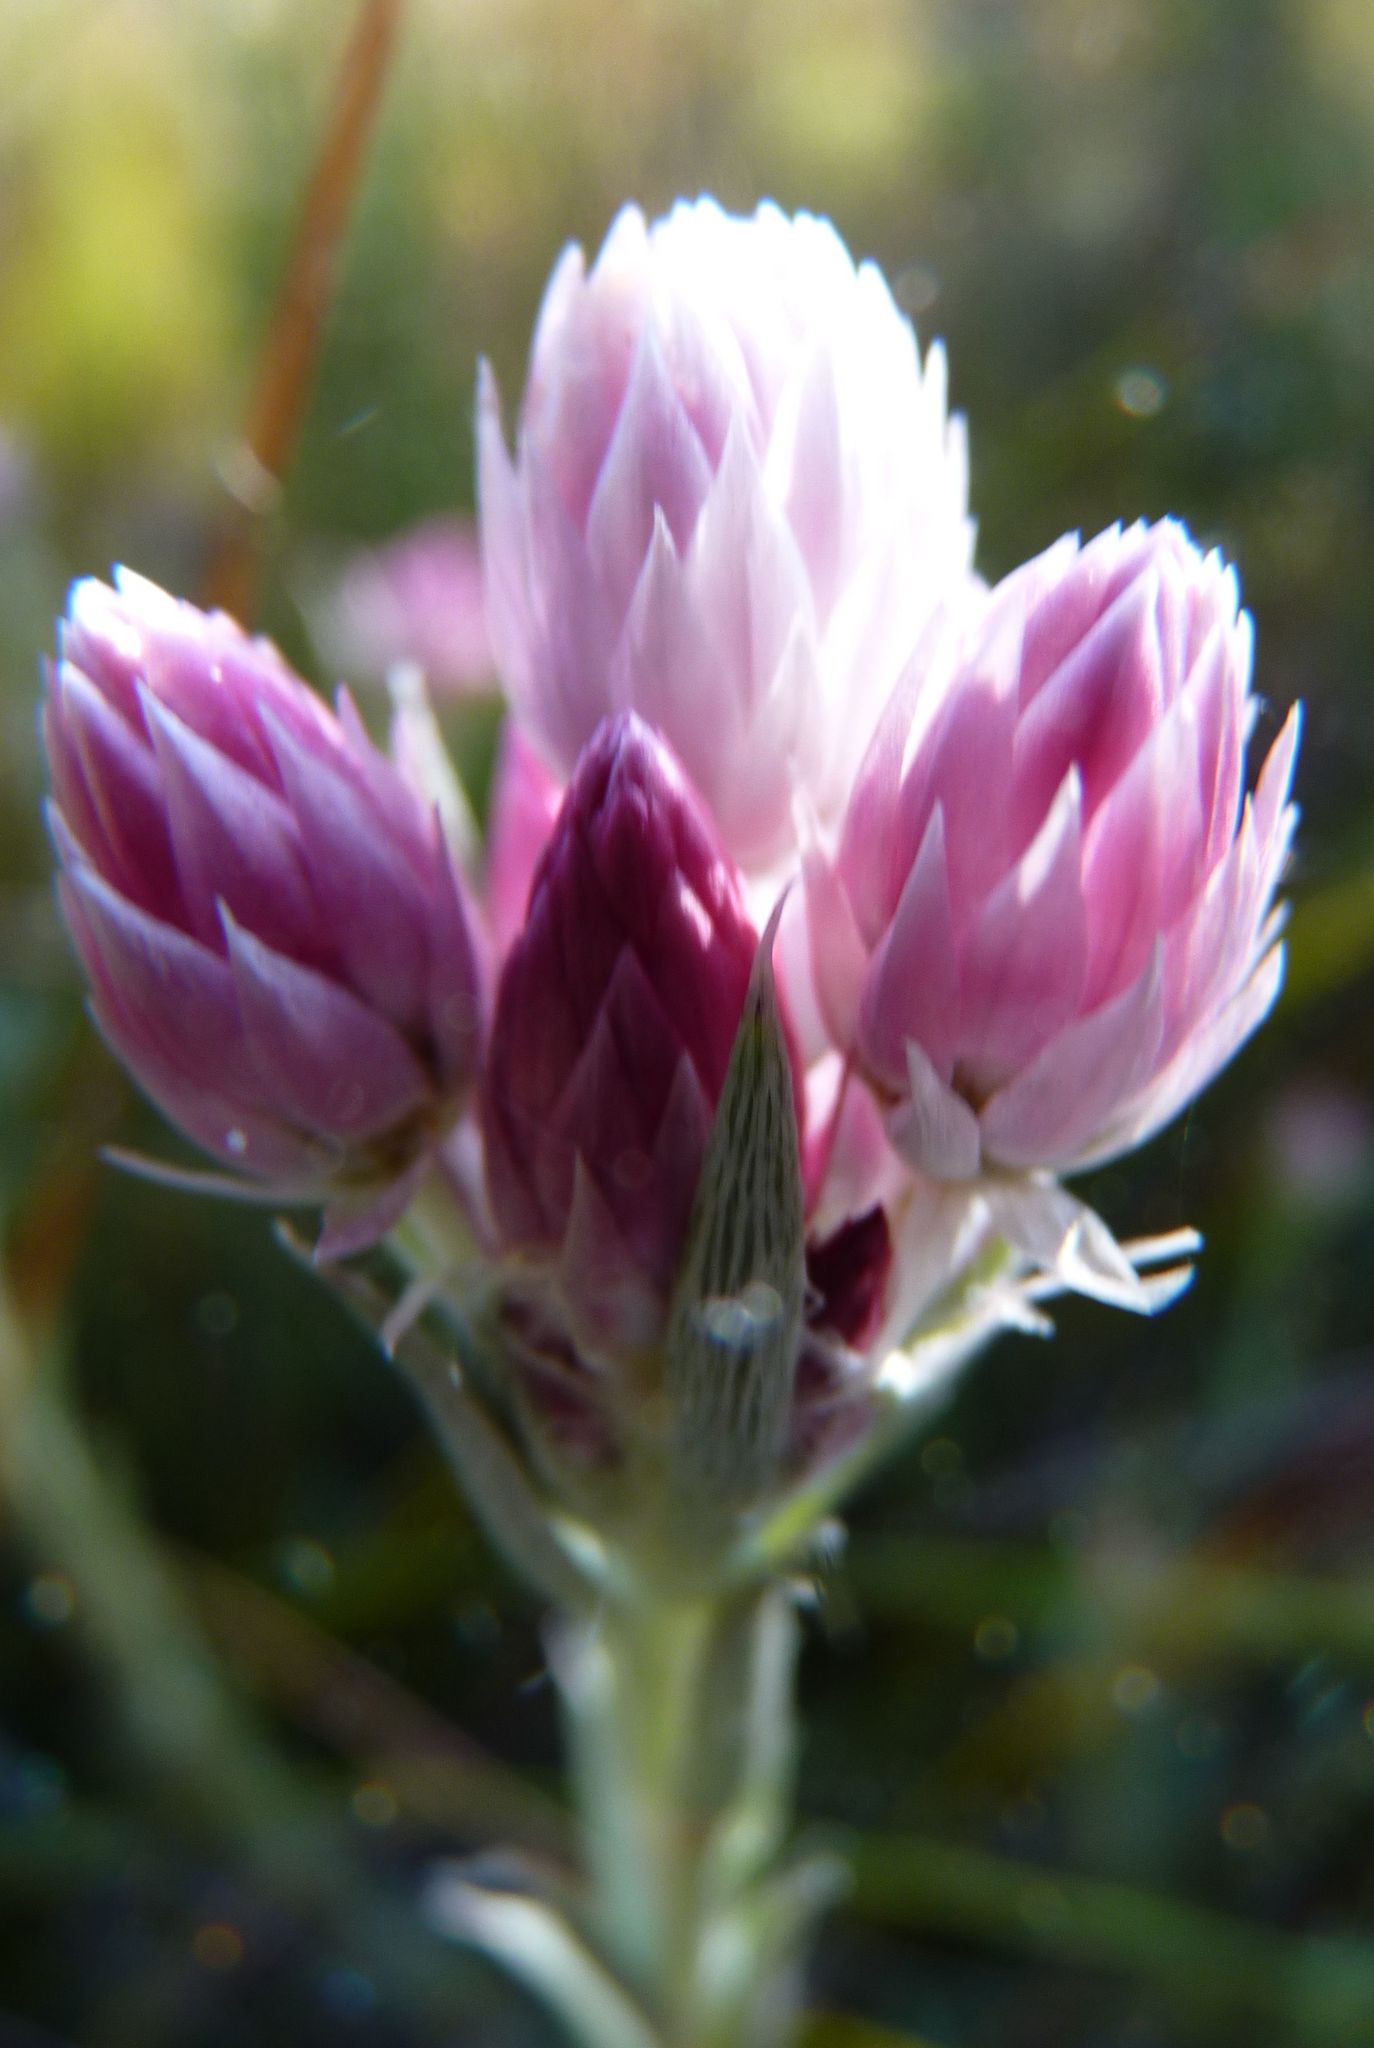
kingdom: Plantae
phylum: Tracheophyta
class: Magnoliopsida
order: Asterales
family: Asteraceae
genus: Achyranthemum
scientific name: Achyranthemum paniculatum
